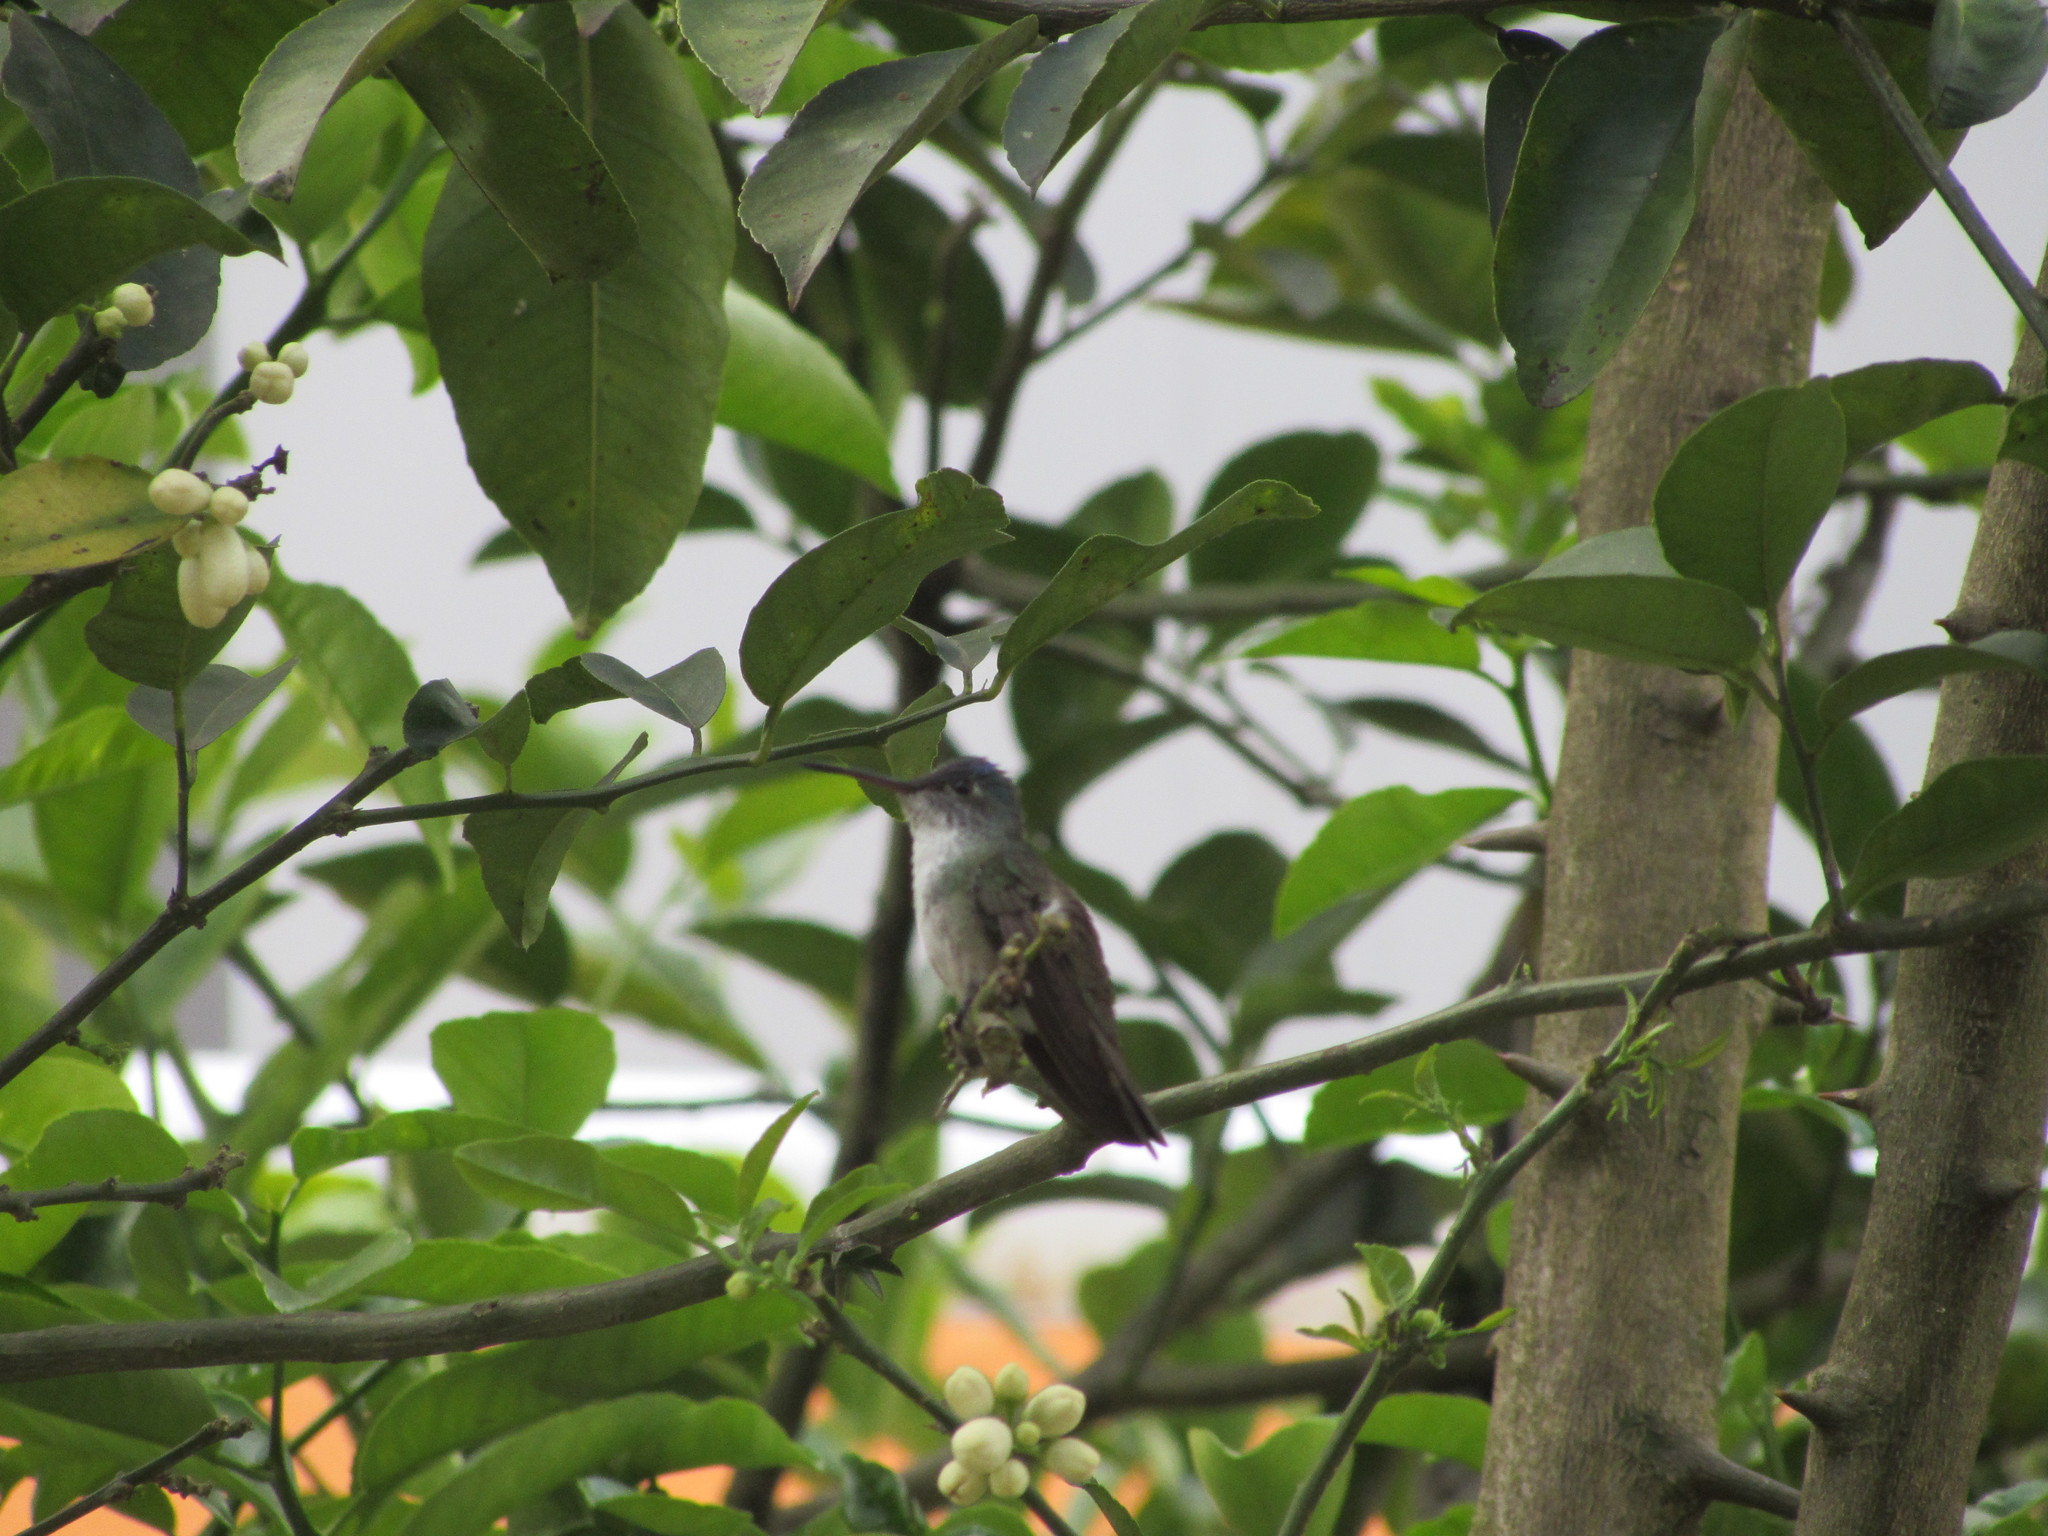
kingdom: Animalia
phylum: Chordata
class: Aves
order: Apodiformes
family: Trochilidae
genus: Saucerottia
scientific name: Saucerottia cyanocephala
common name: Azure-crowned hummingbird
